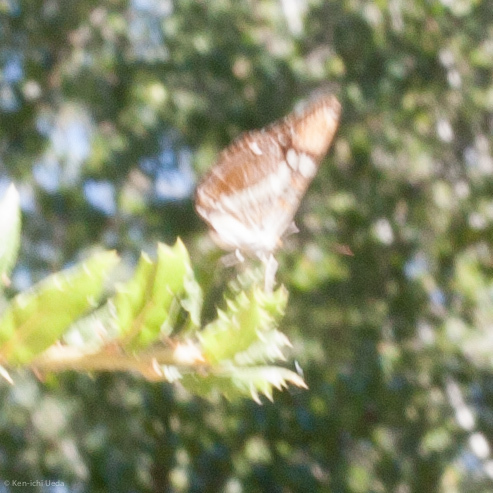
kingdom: Animalia
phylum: Arthropoda
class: Insecta
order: Lepidoptera
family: Nymphalidae
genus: Limenitis
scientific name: Limenitis bredowii
